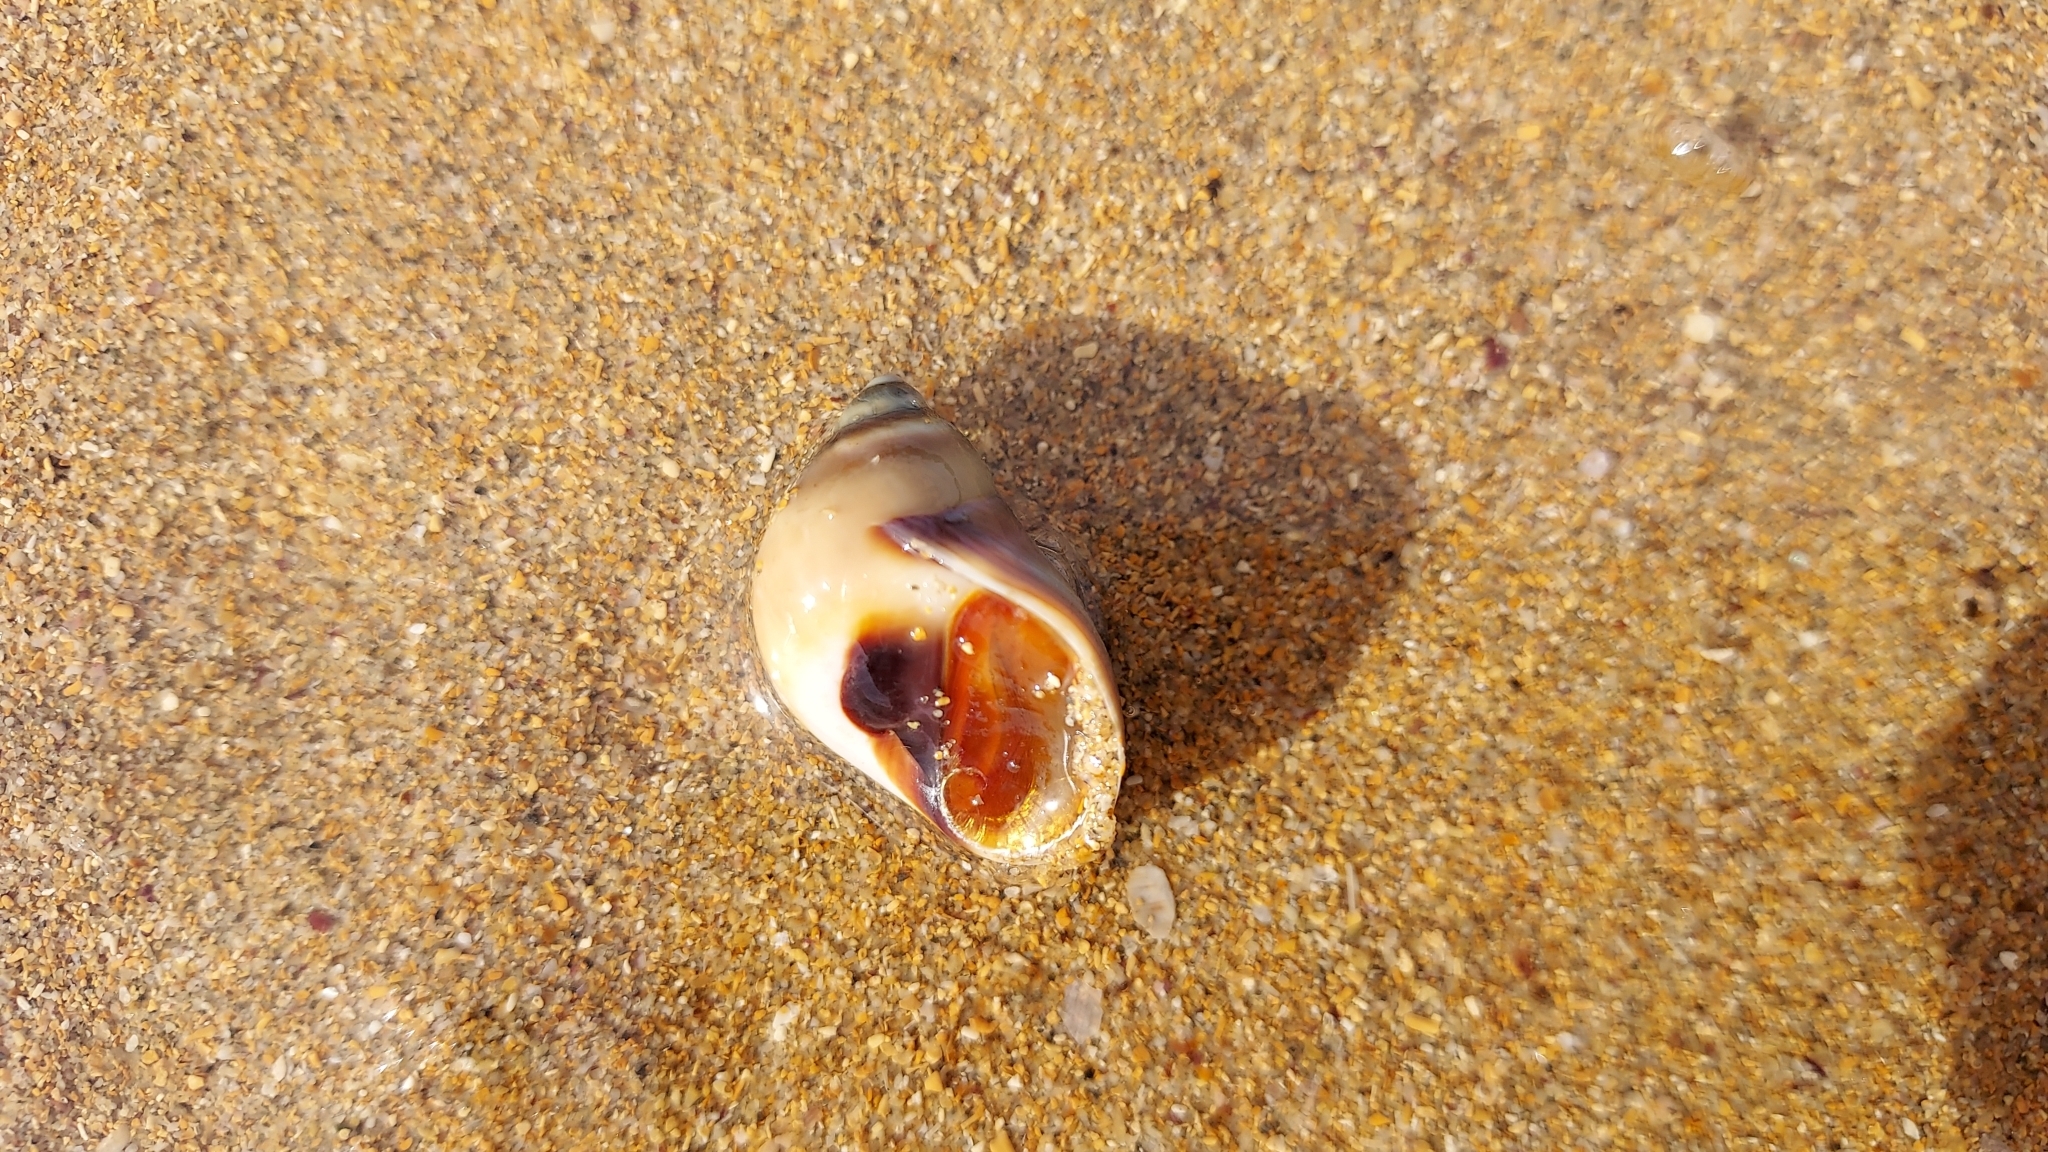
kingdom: Animalia
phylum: Mollusca
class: Gastropoda
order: Littorinimorpha
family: Naticidae
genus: Conuber
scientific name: Conuber conicum
